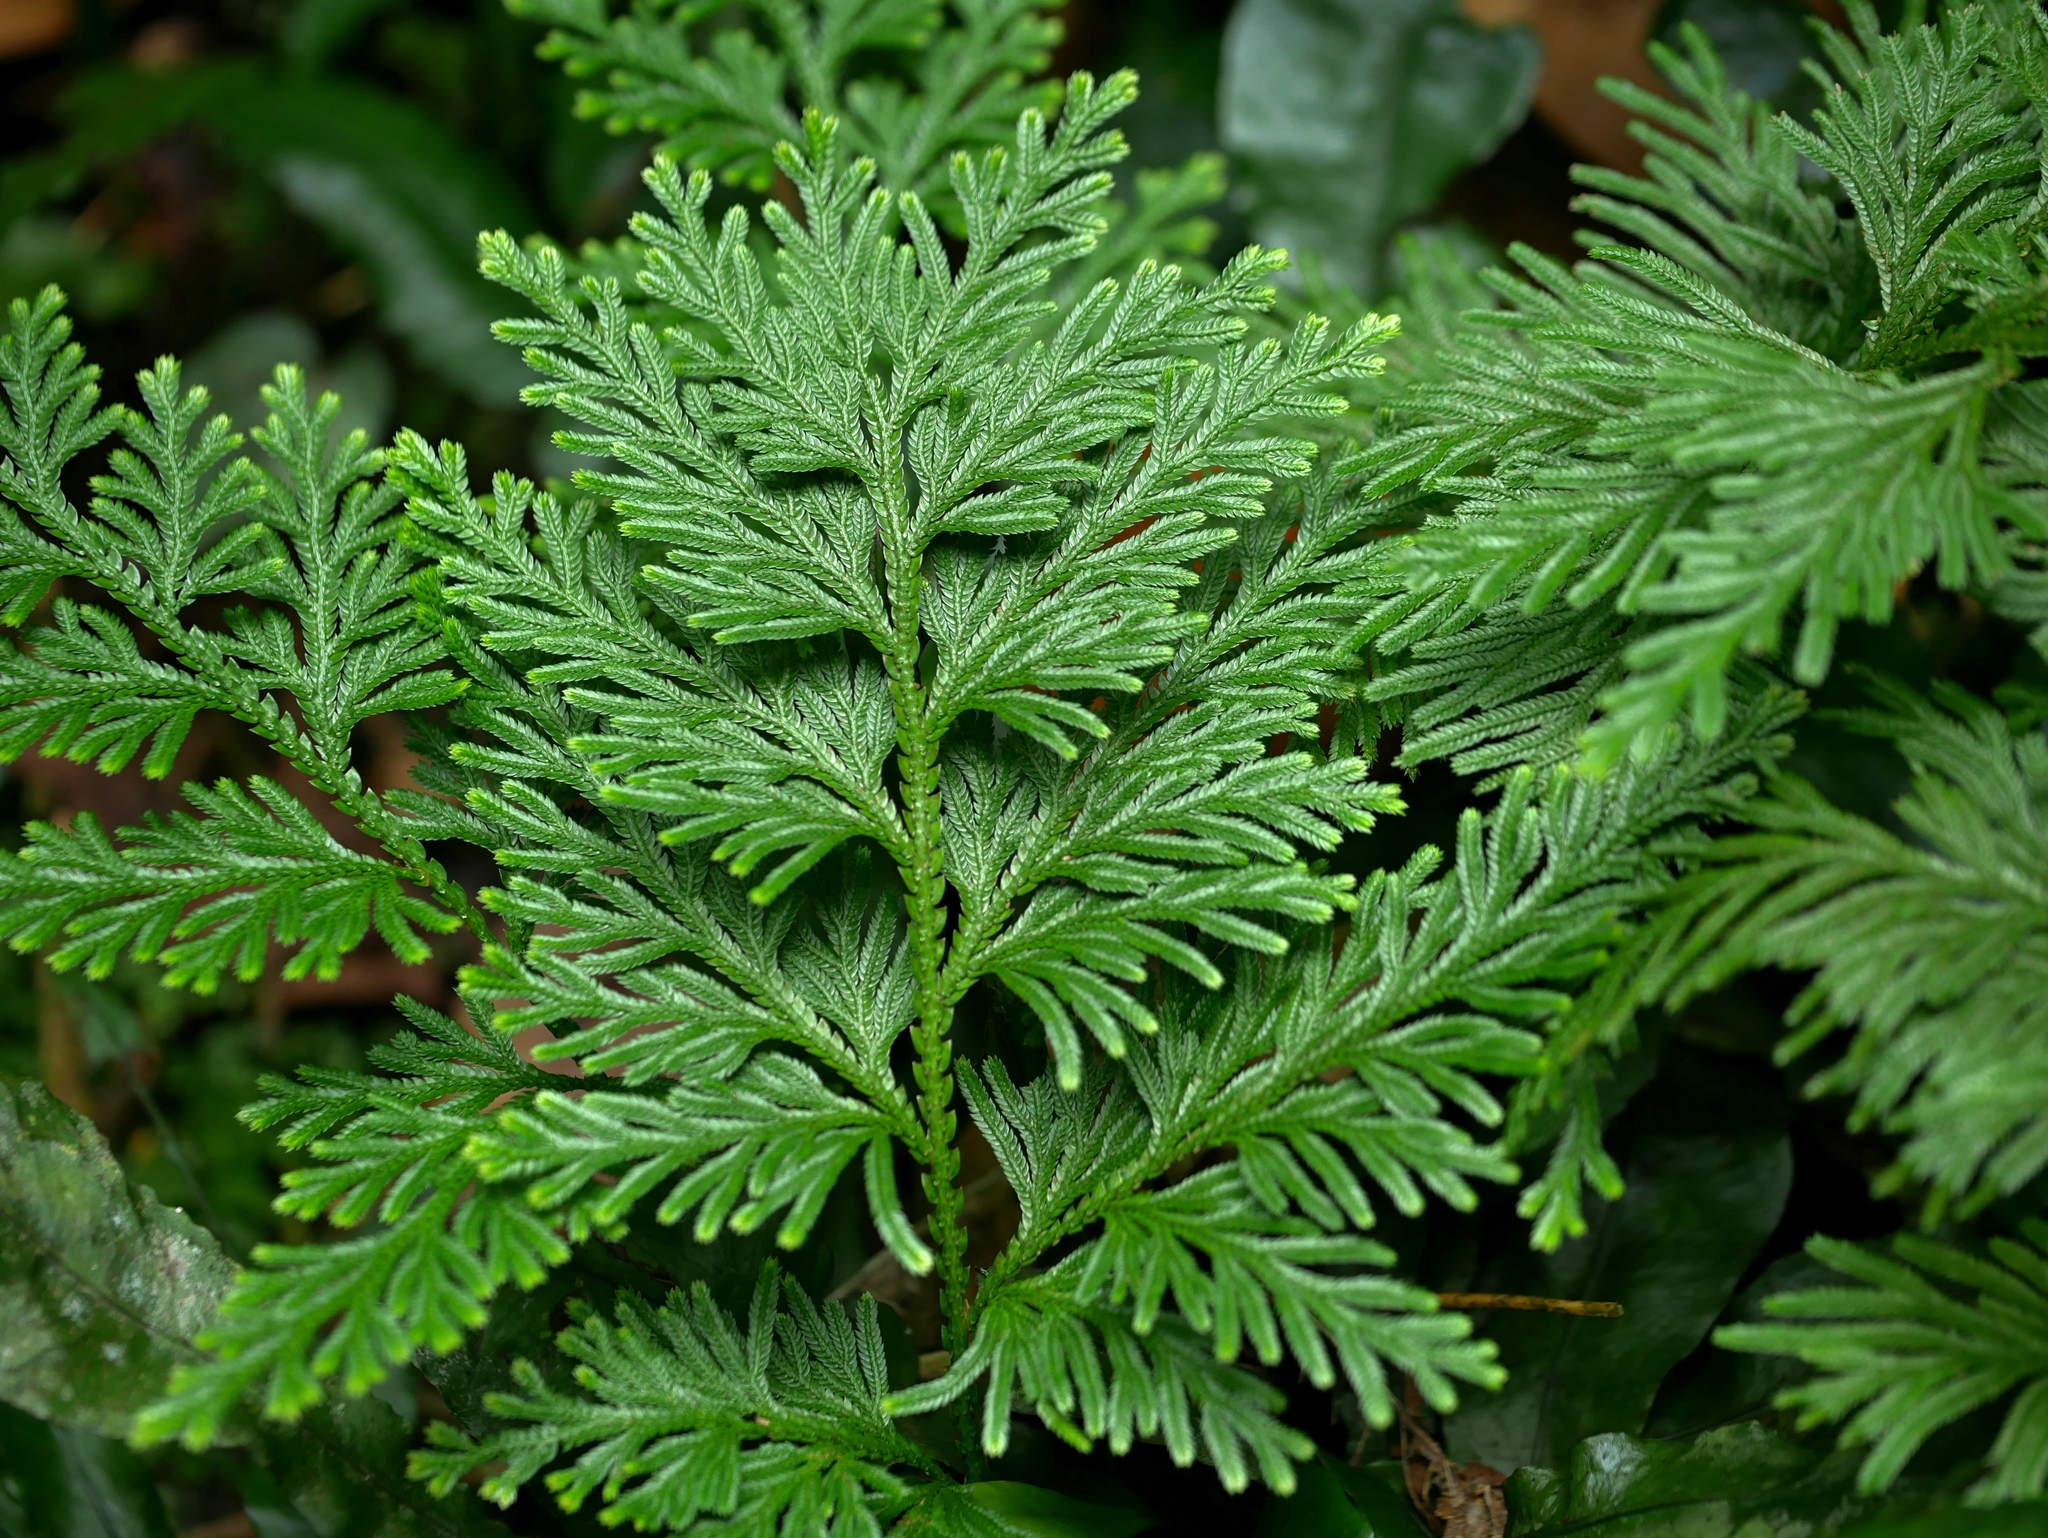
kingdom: Plantae
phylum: Tracheophyta
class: Lycopodiopsida
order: Selaginellales
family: Selaginellaceae
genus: Selaginella
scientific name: Selaginella involvens
